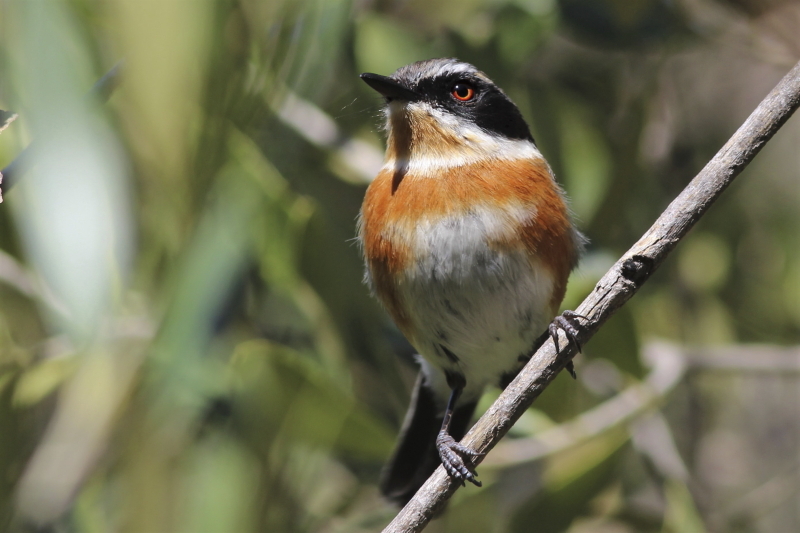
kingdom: Animalia
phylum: Chordata
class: Aves
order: Passeriformes
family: Platysteiridae
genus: Batis
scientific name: Batis capensis
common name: Cape batis
